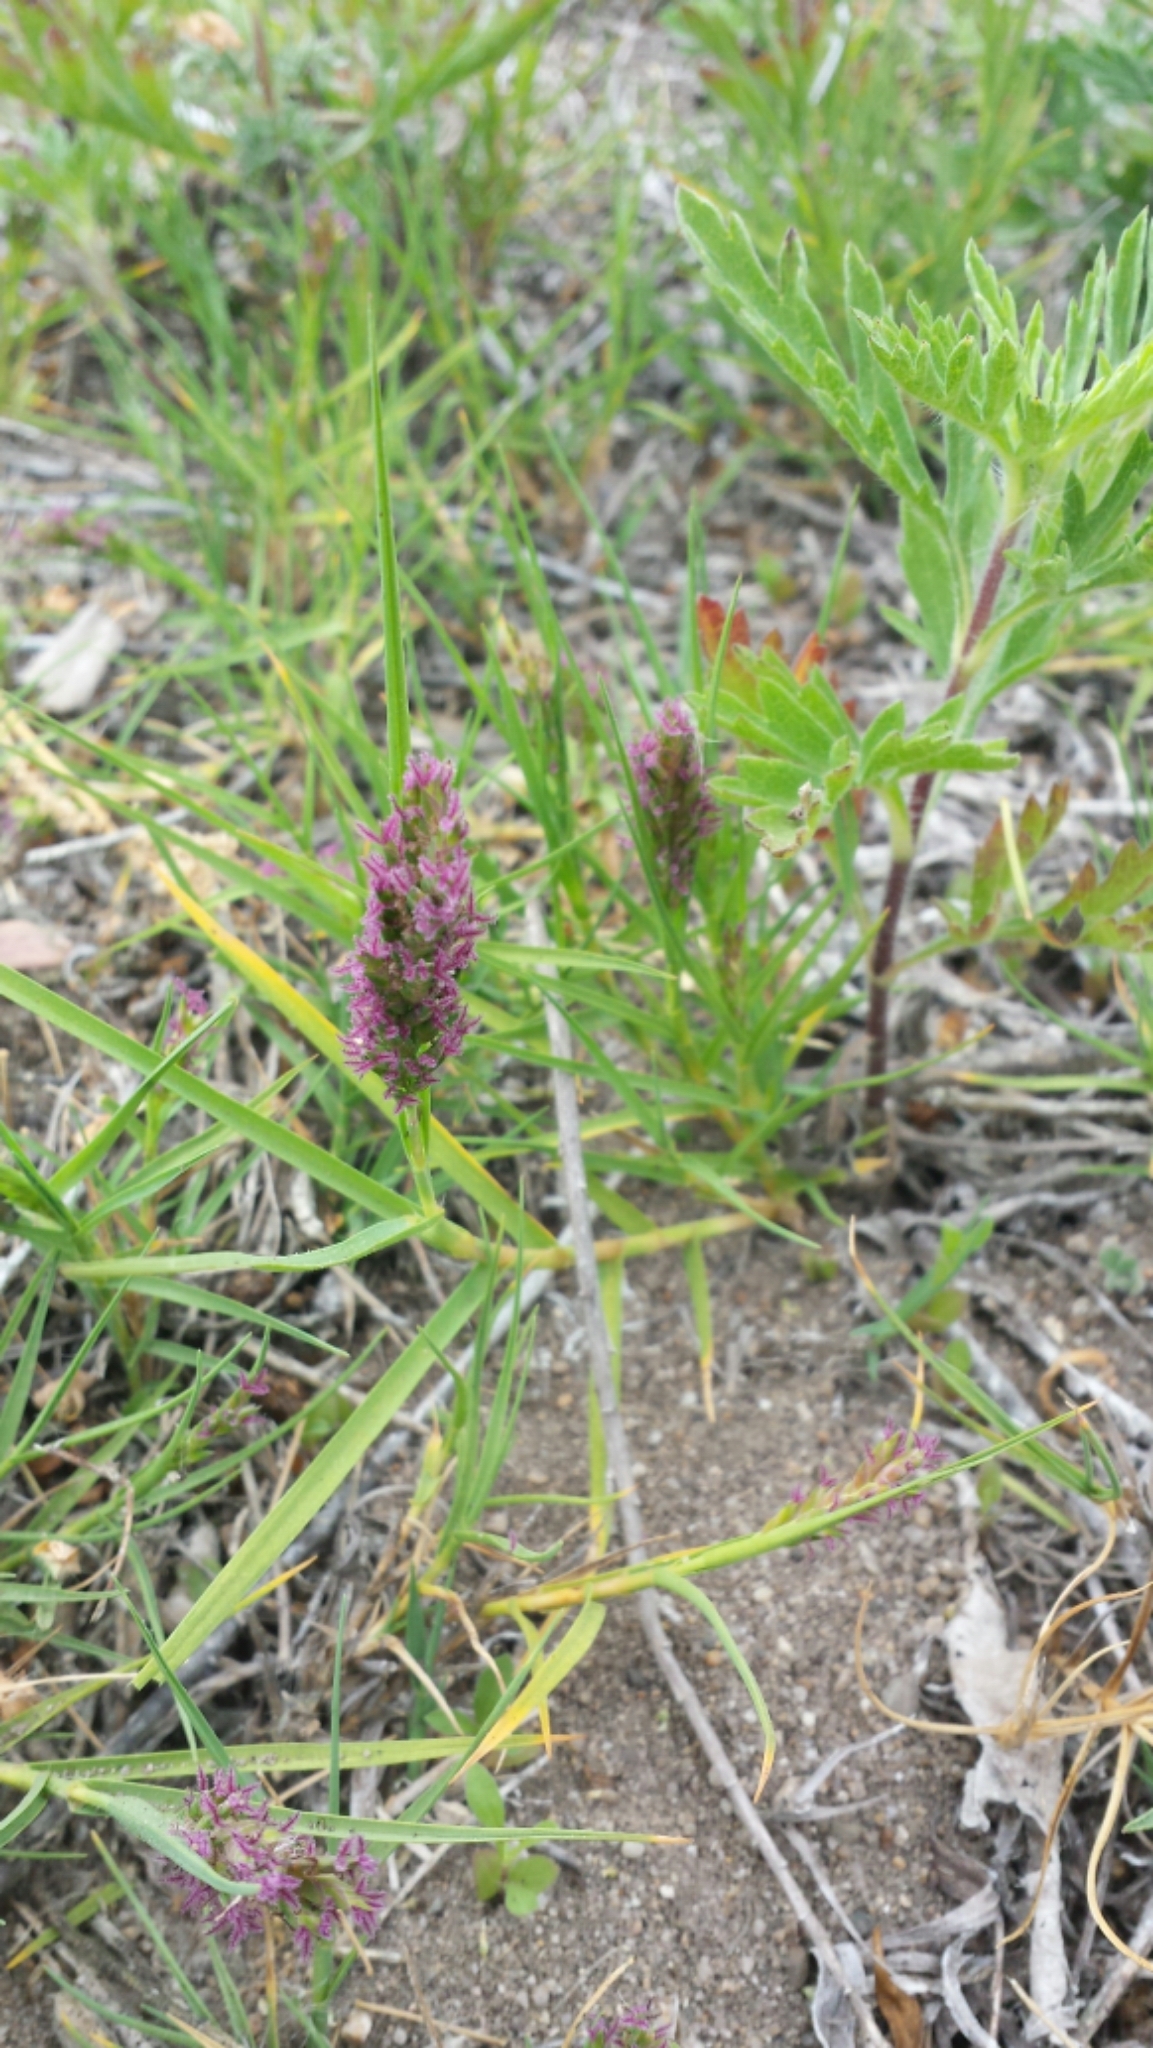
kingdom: Plantae
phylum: Tracheophyta
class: Liliopsida
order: Poales
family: Poaceae
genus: Distichlis
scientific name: Distichlis spicata
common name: Saltgrass
